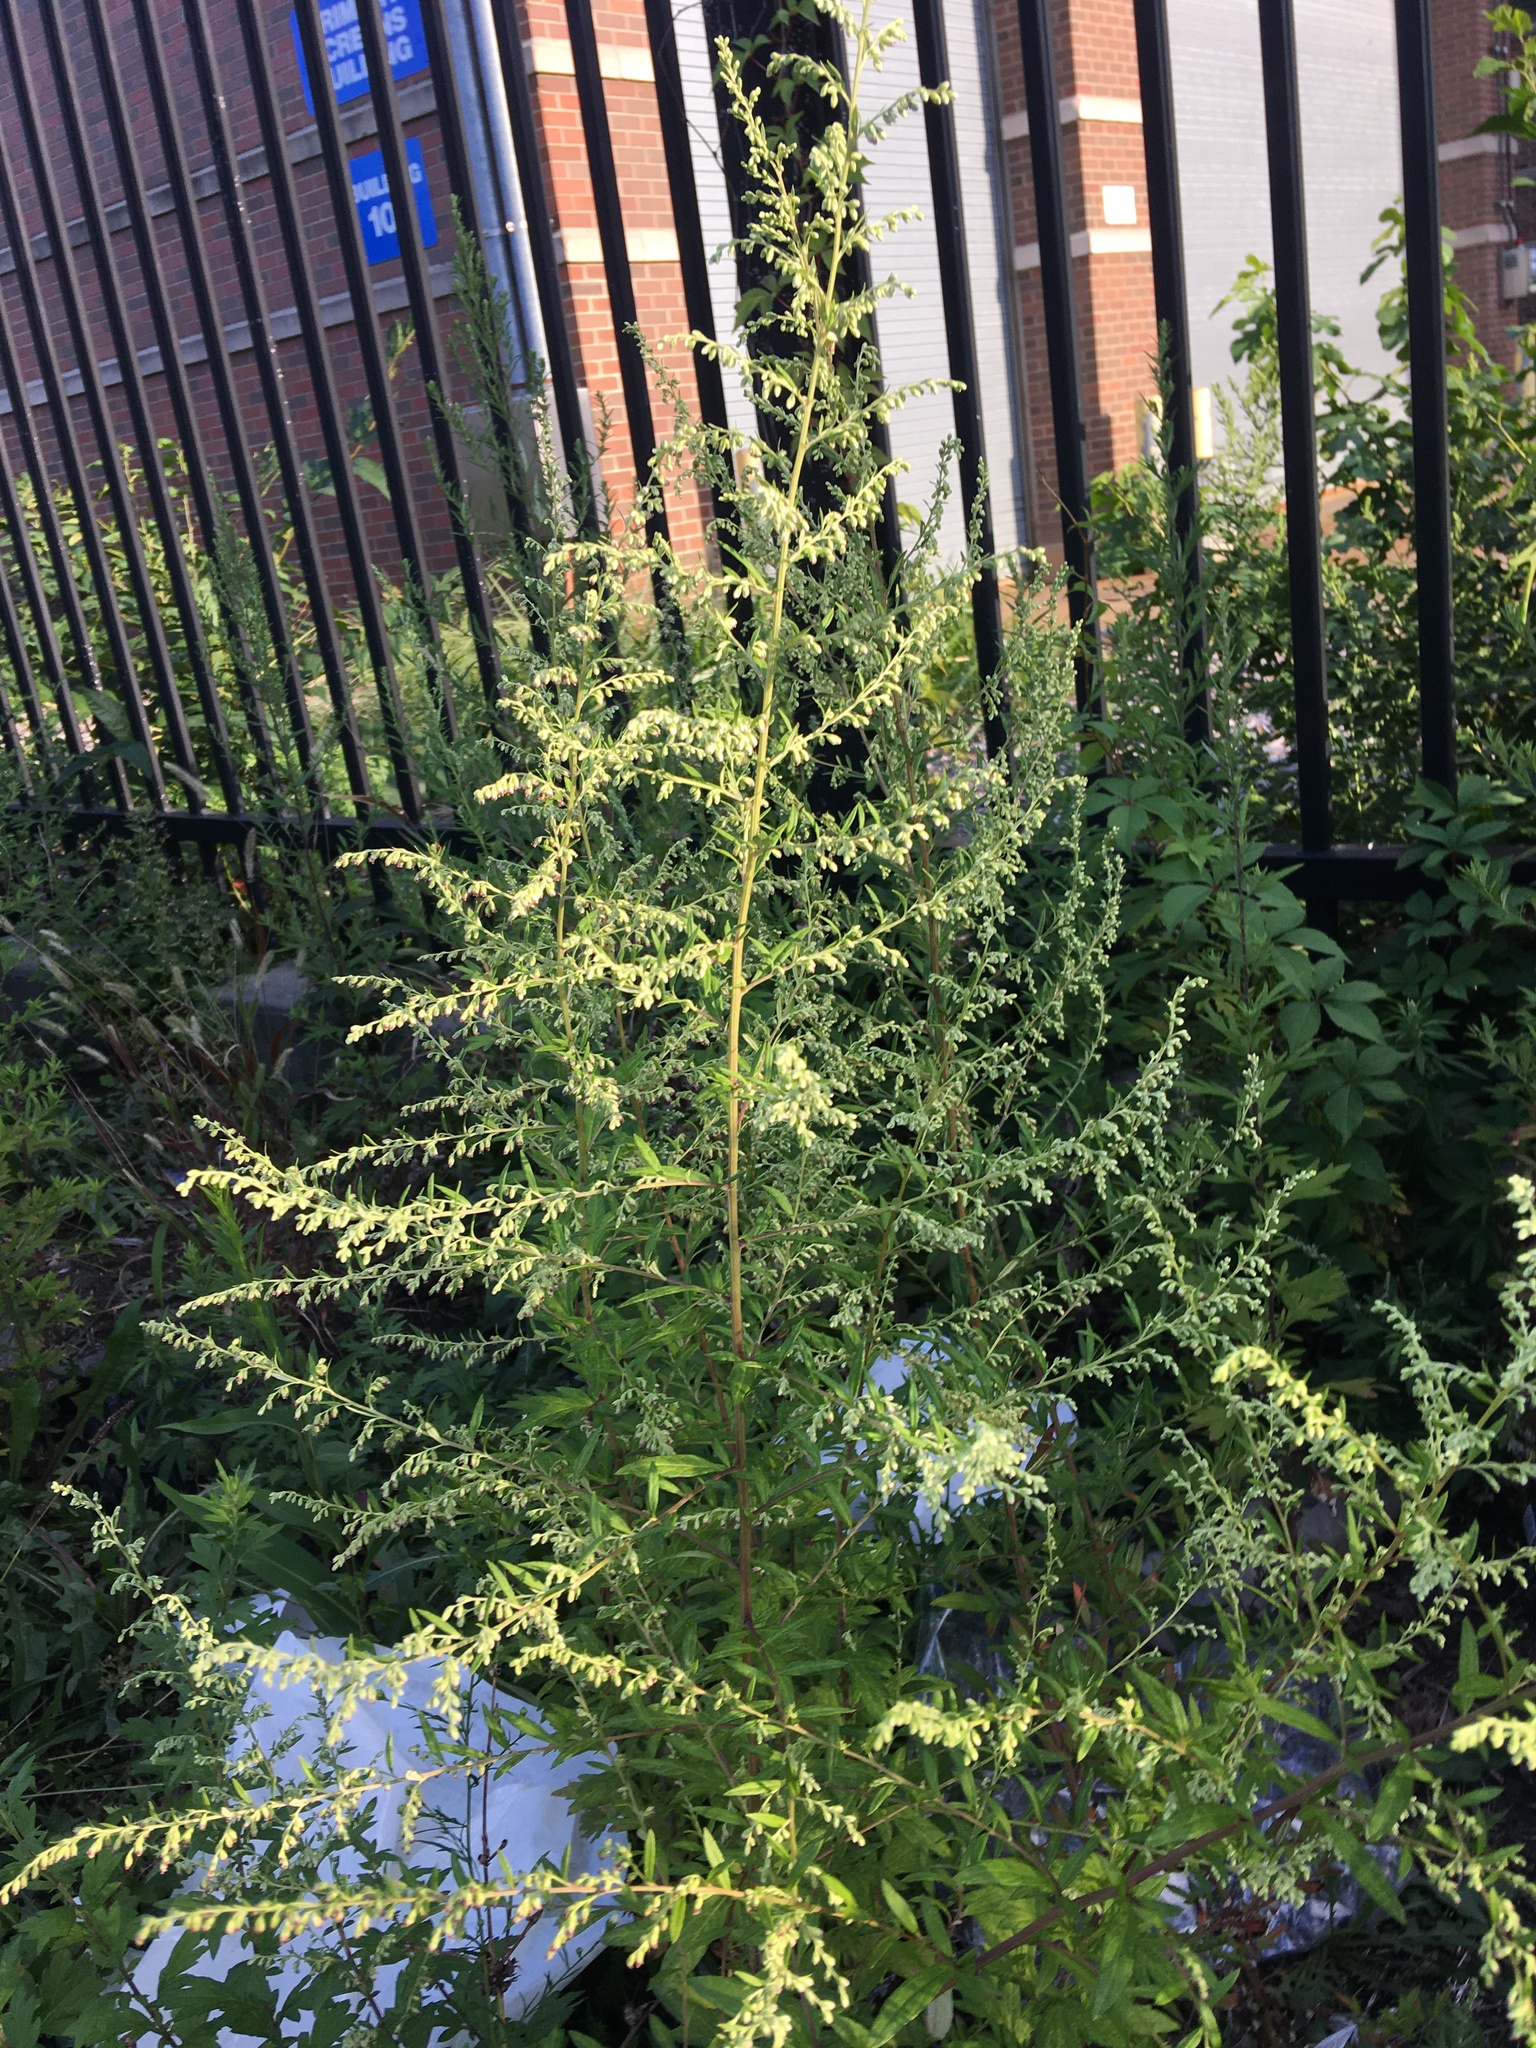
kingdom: Plantae
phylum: Tracheophyta
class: Magnoliopsida
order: Asterales
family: Asteraceae
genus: Artemisia
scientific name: Artemisia vulgaris
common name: Mugwort
